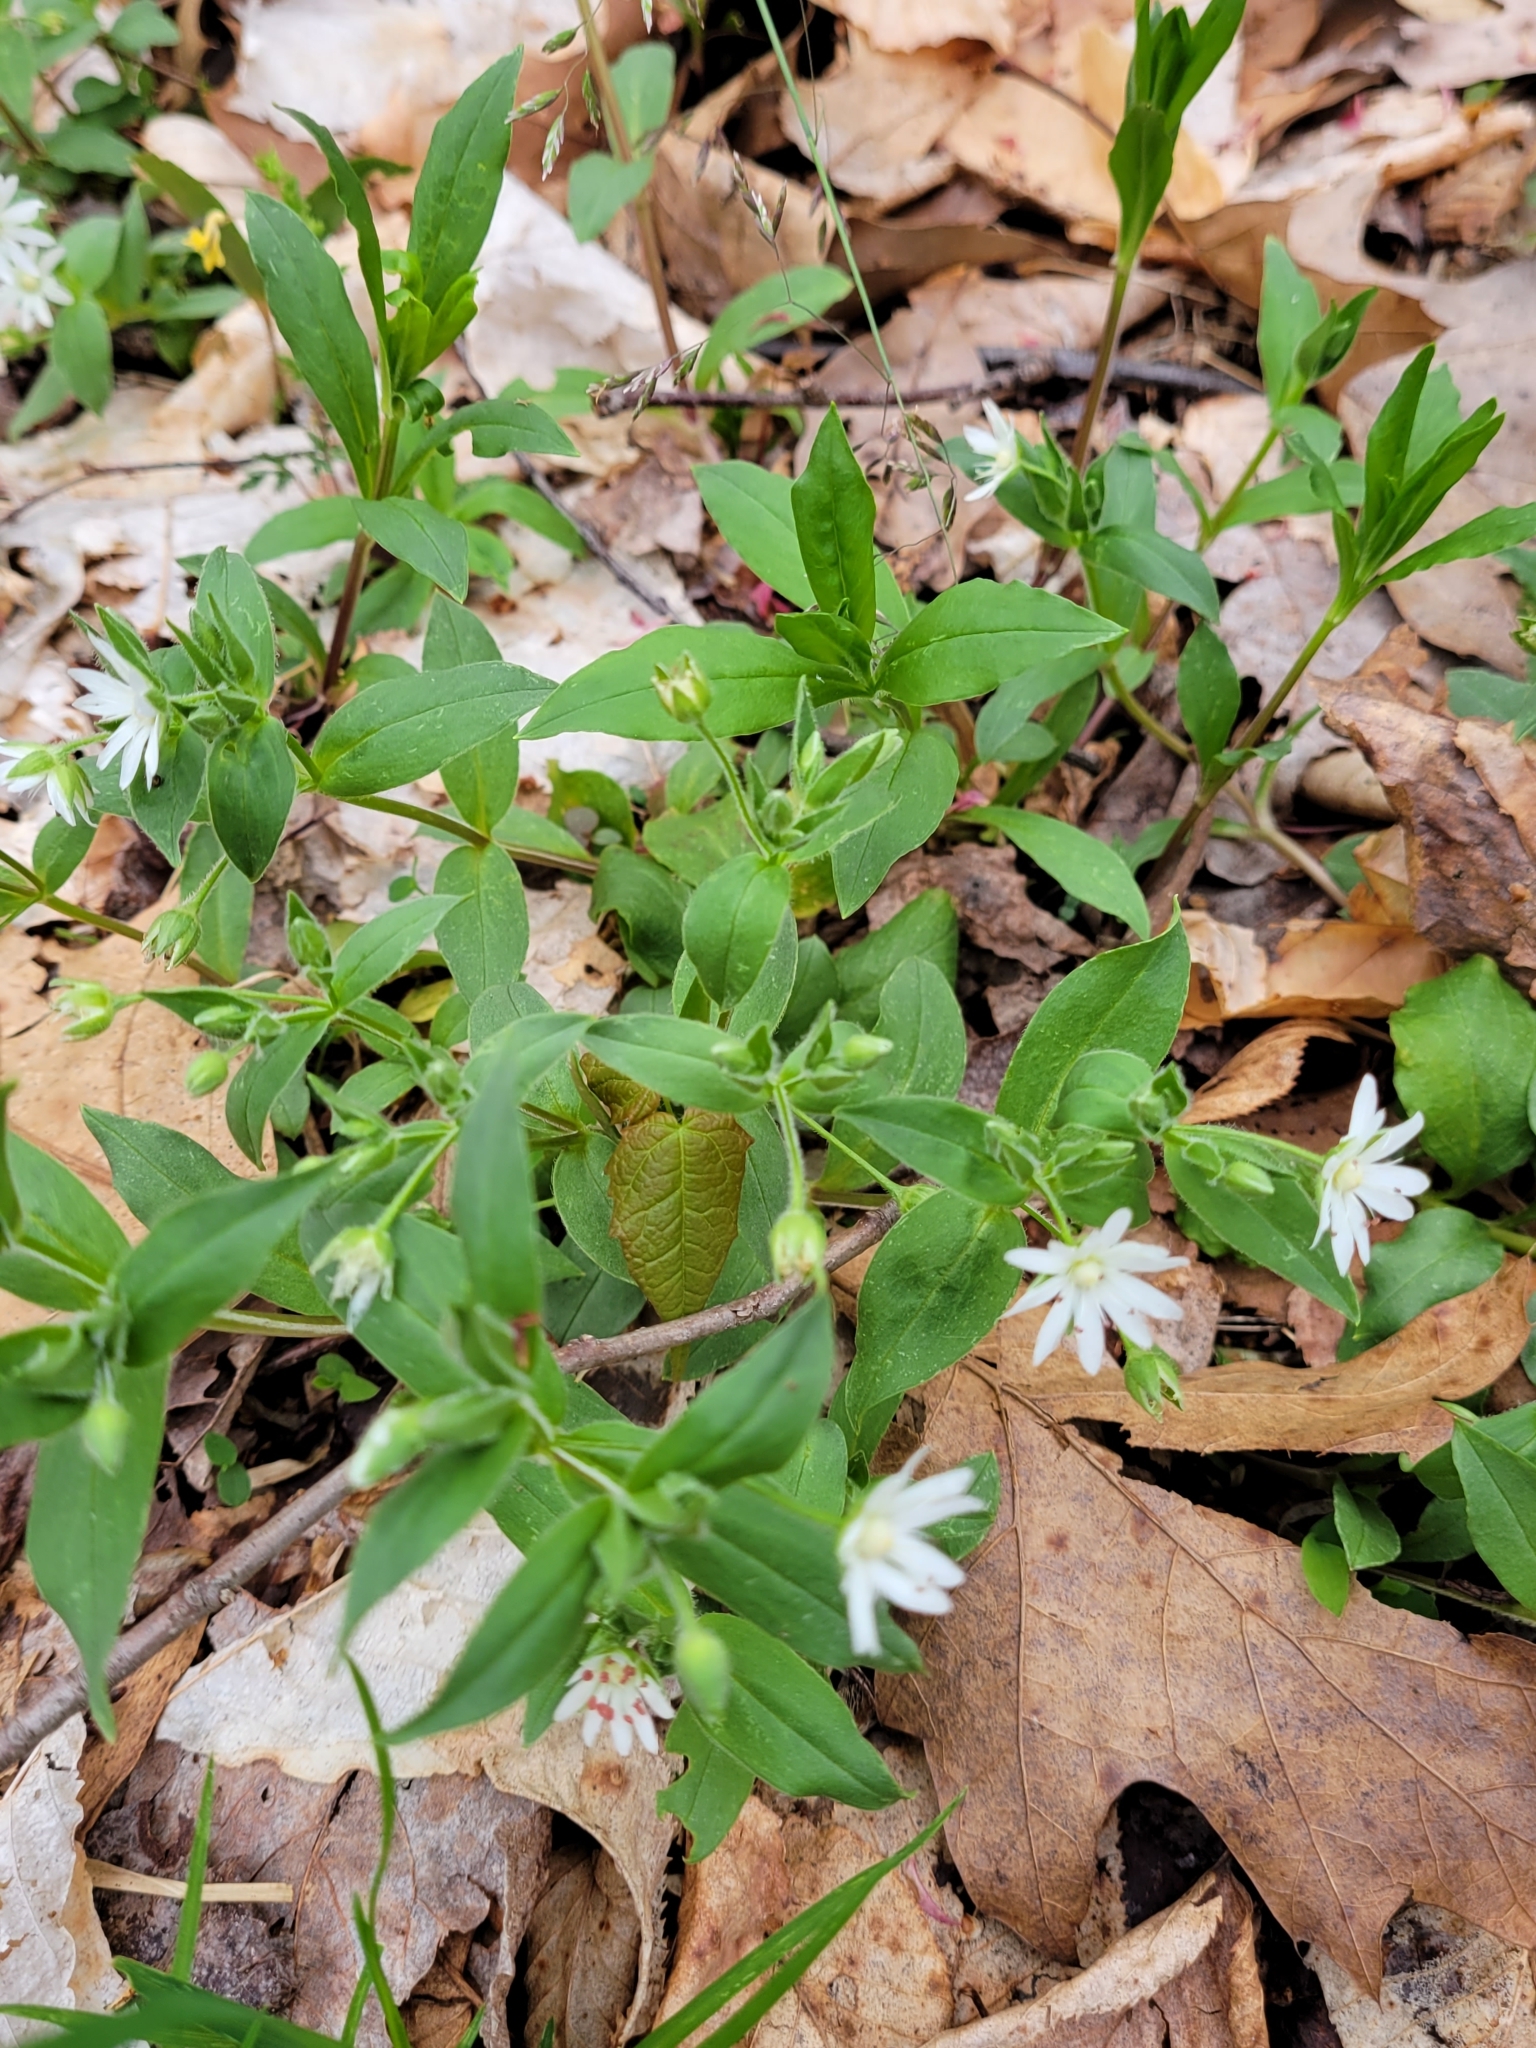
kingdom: Plantae
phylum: Tracheophyta
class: Magnoliopsida
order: Caryophyllales
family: Caryophyllaceae
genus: Stellaria
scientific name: Stellaria pubera
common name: Star chickweed
